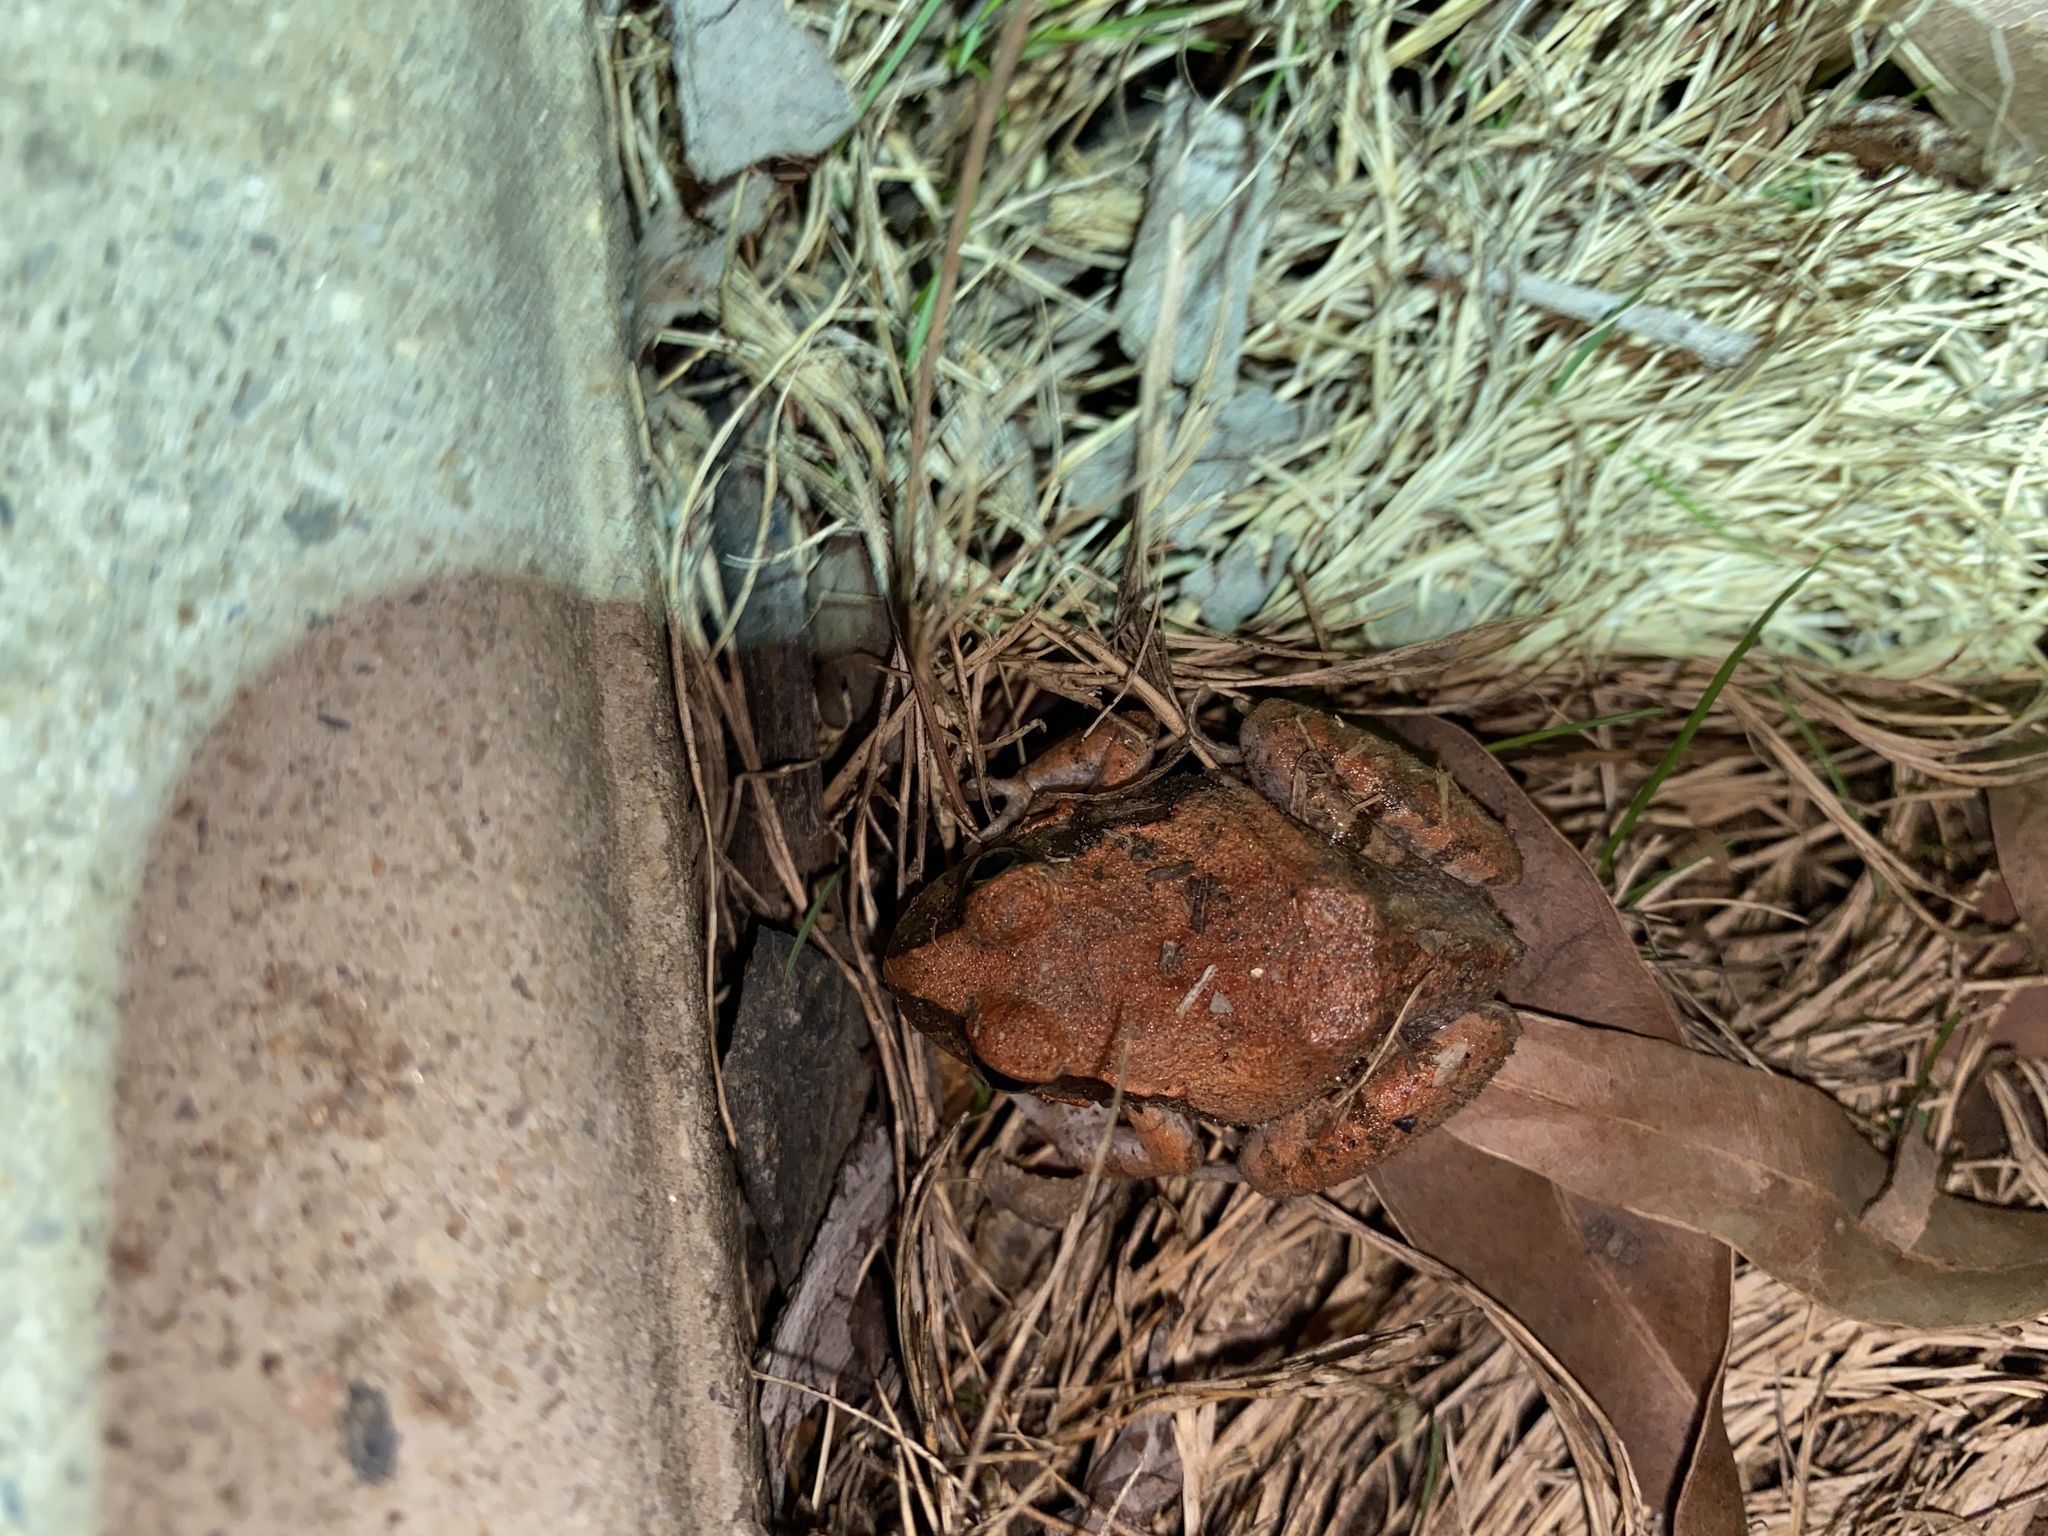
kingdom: Animalia
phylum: Chordata
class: Amphibia
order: Anura
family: Limnodynastidae
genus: Platyplectrum
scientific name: Platyplectrum ornatum
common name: Ornate burrowing frog
